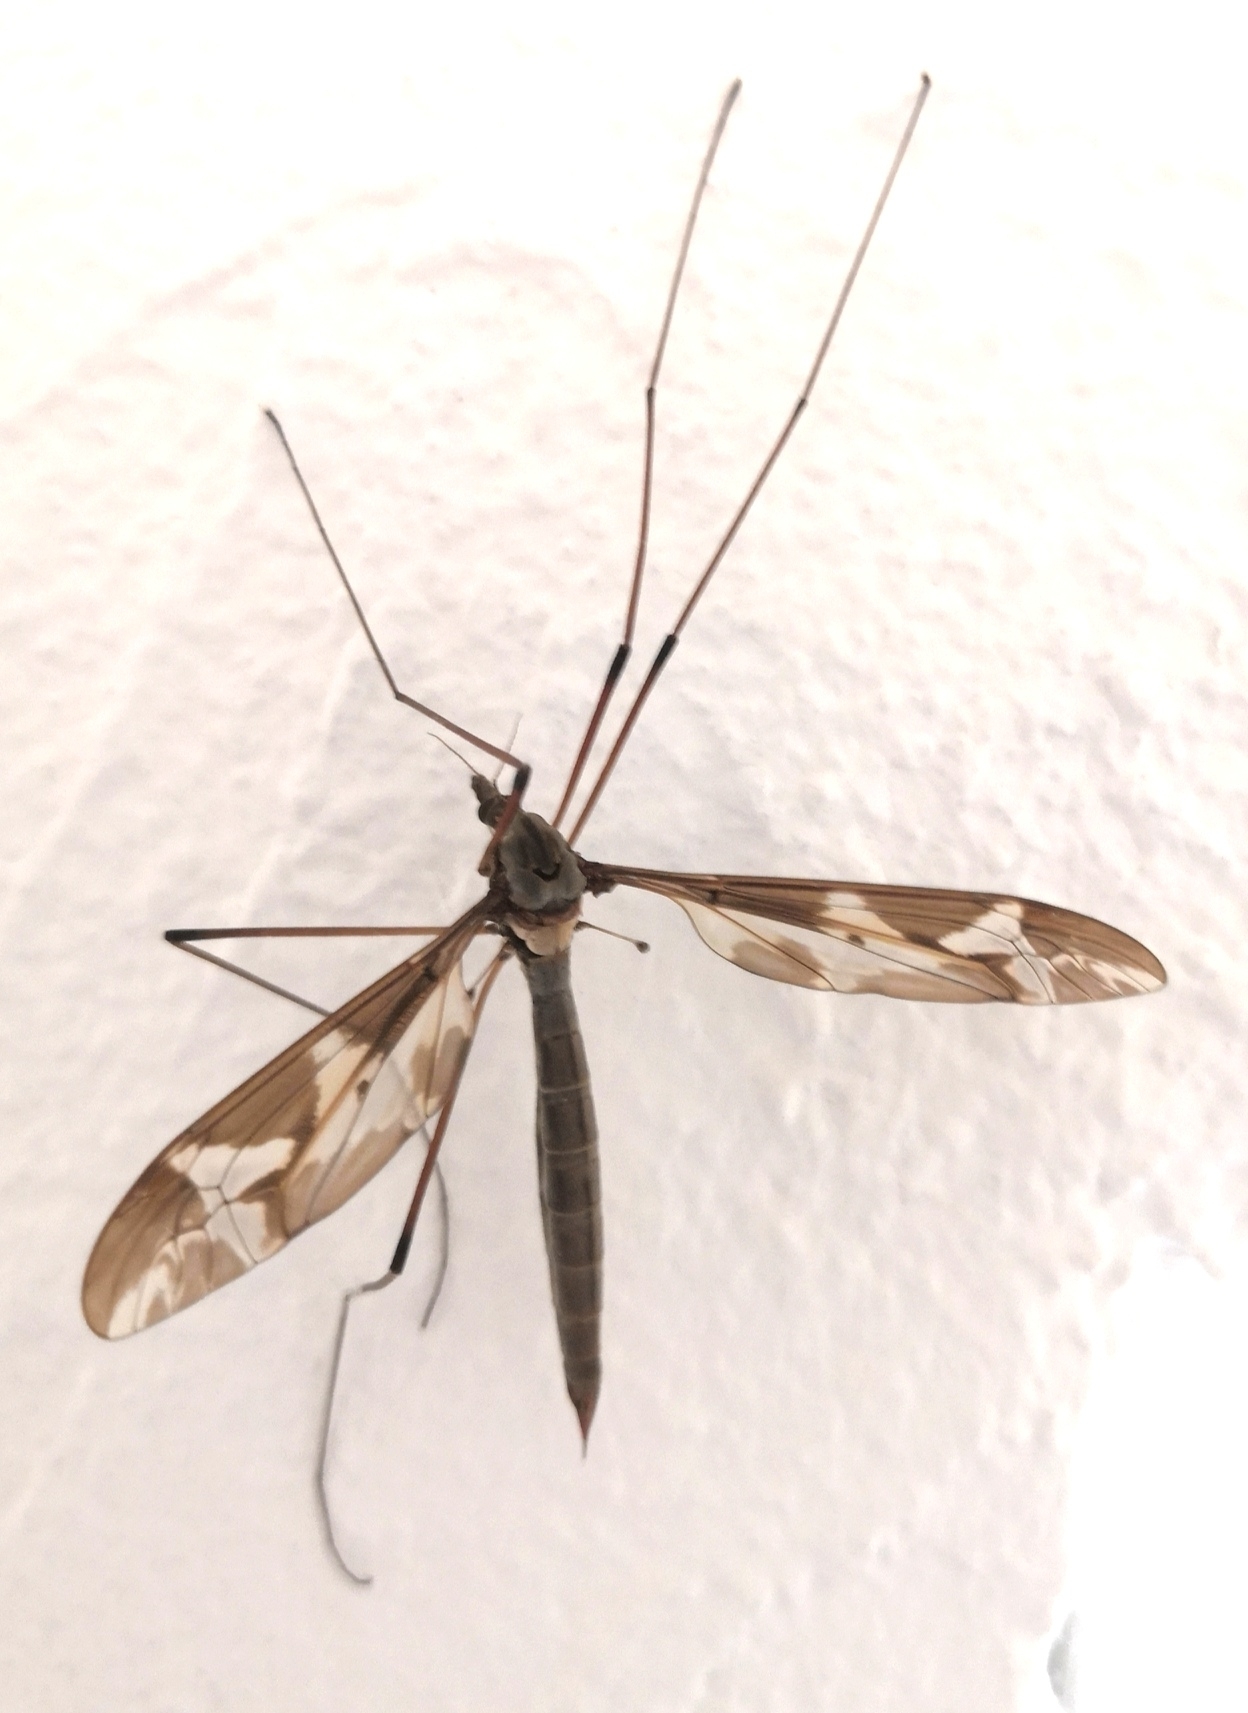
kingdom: Animalia
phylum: Arthropoda
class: Insecta
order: Diptera
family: Tipulidae
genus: Tipula
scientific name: Tipula maxima
